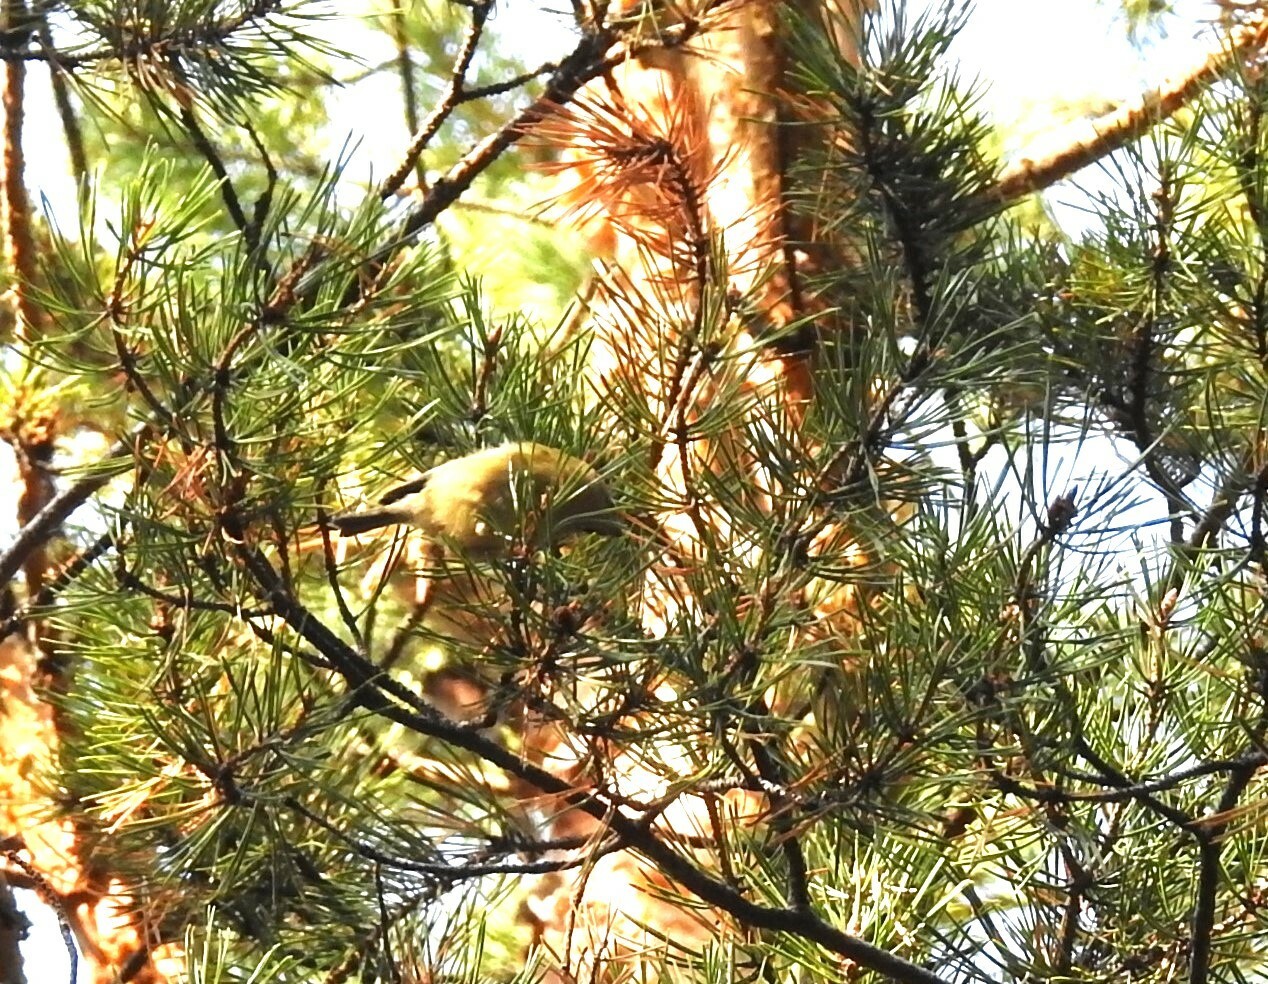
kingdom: Animalia
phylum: Chordata
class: Aves
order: Passeriformes
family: Regulidae
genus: Regulus
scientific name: Regulus regulus
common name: Goldcrest
